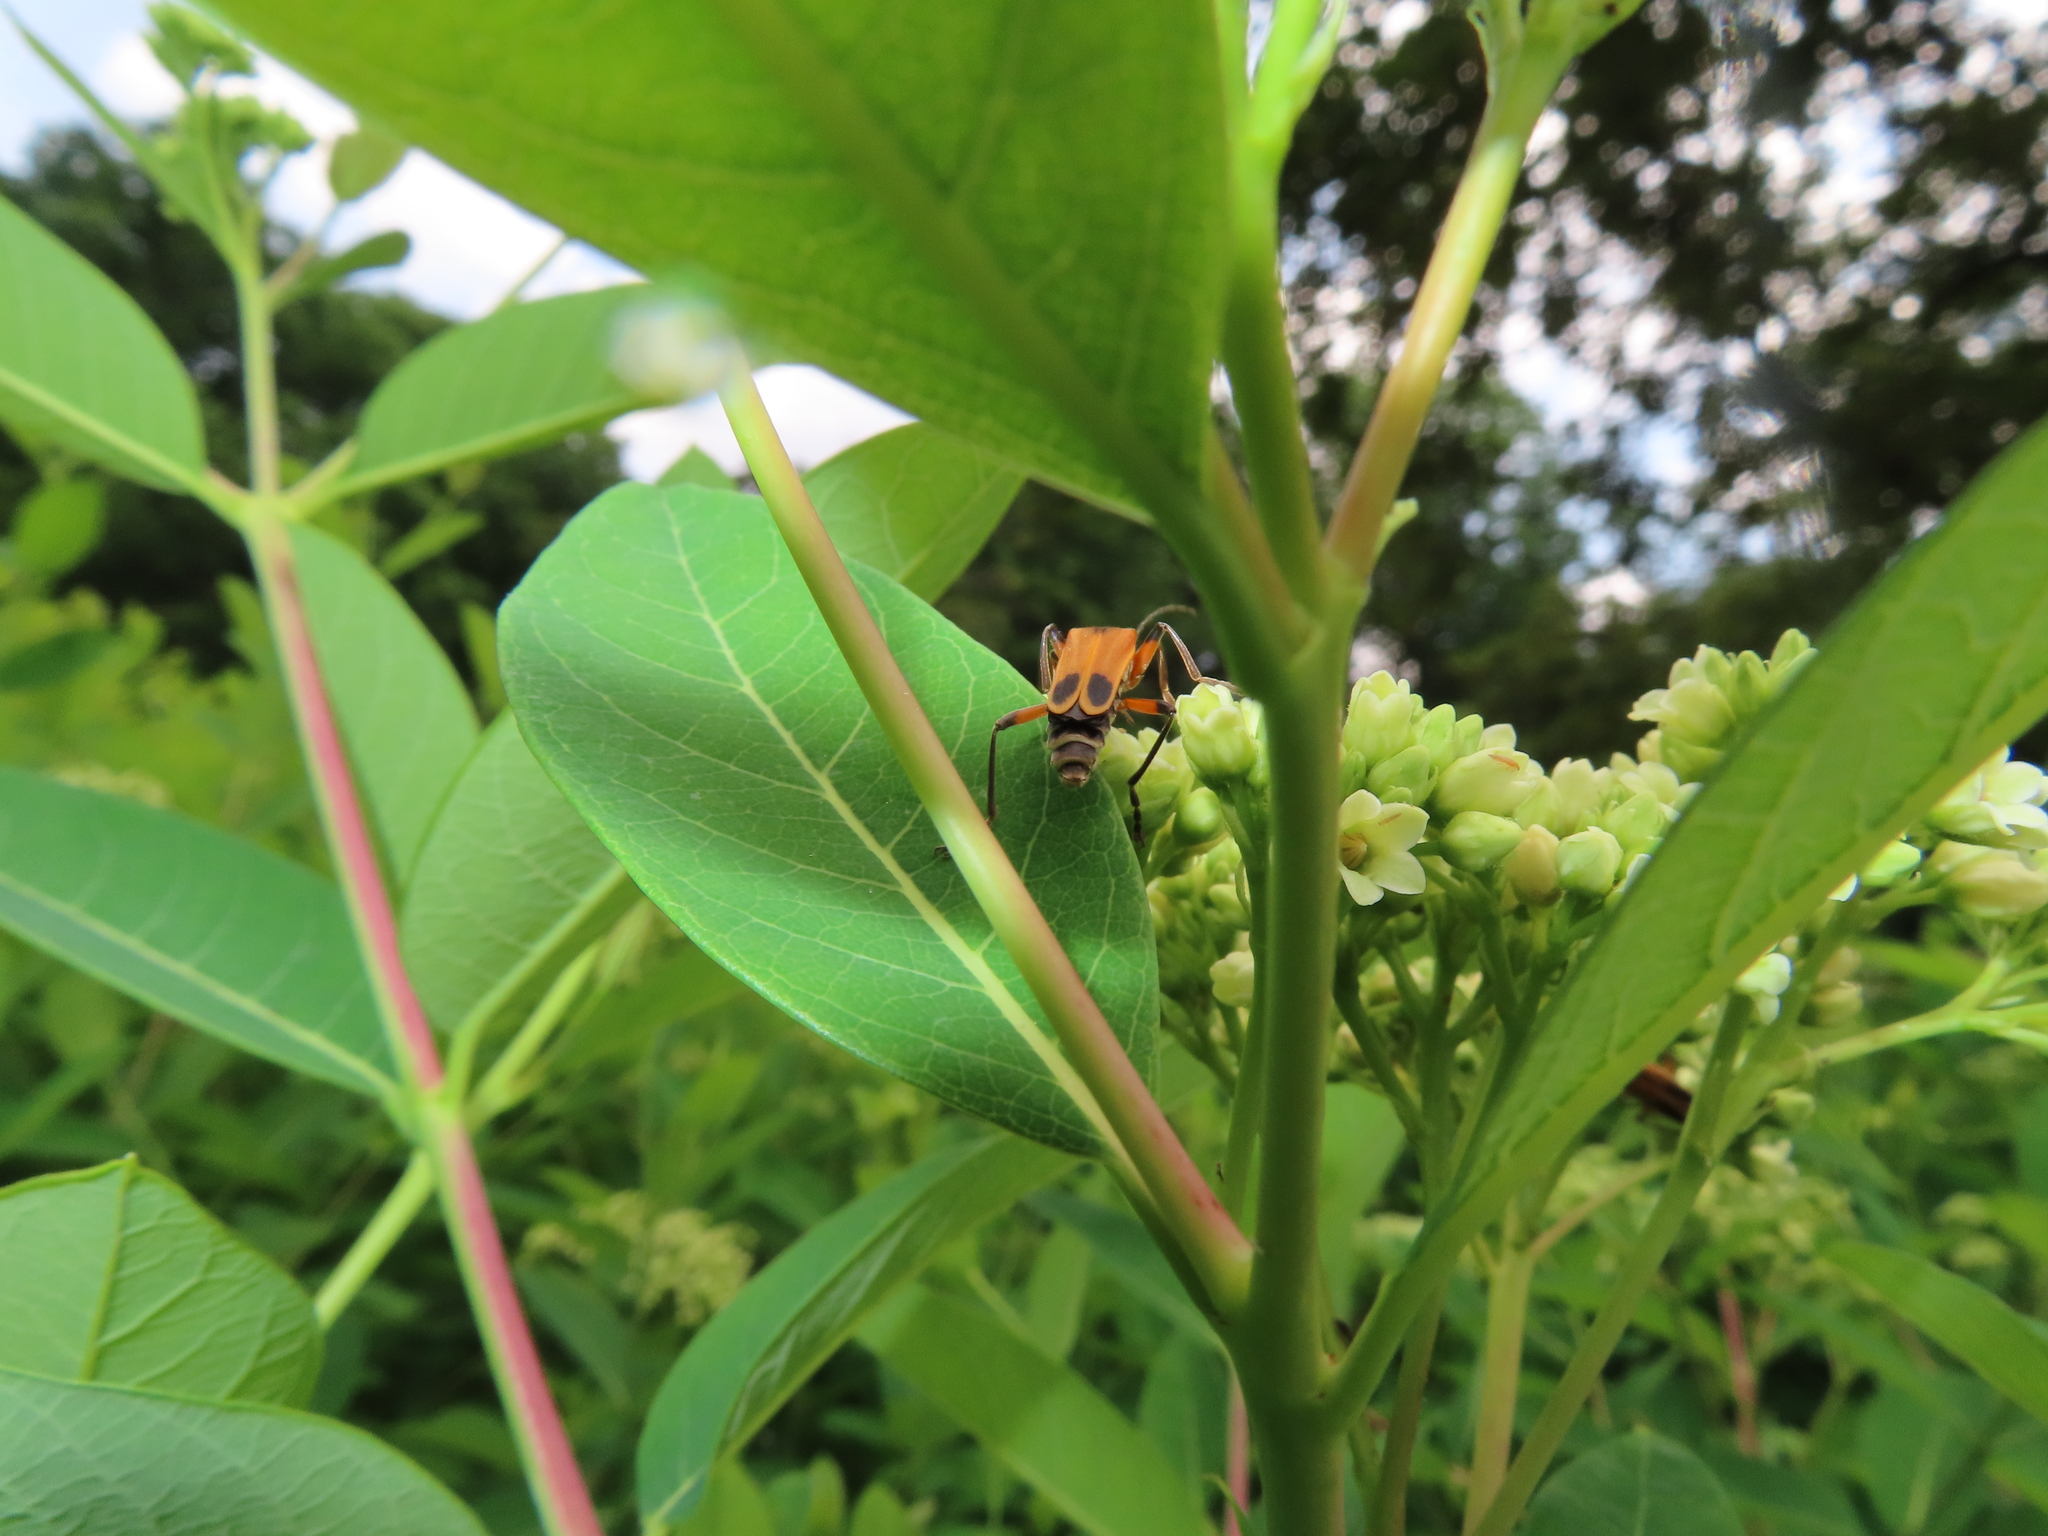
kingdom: Animalia
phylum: Arthropoda
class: Insecta
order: Coleoptera
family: Cantharidae
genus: Chauliognathus
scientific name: Chauliognathus marginatus
